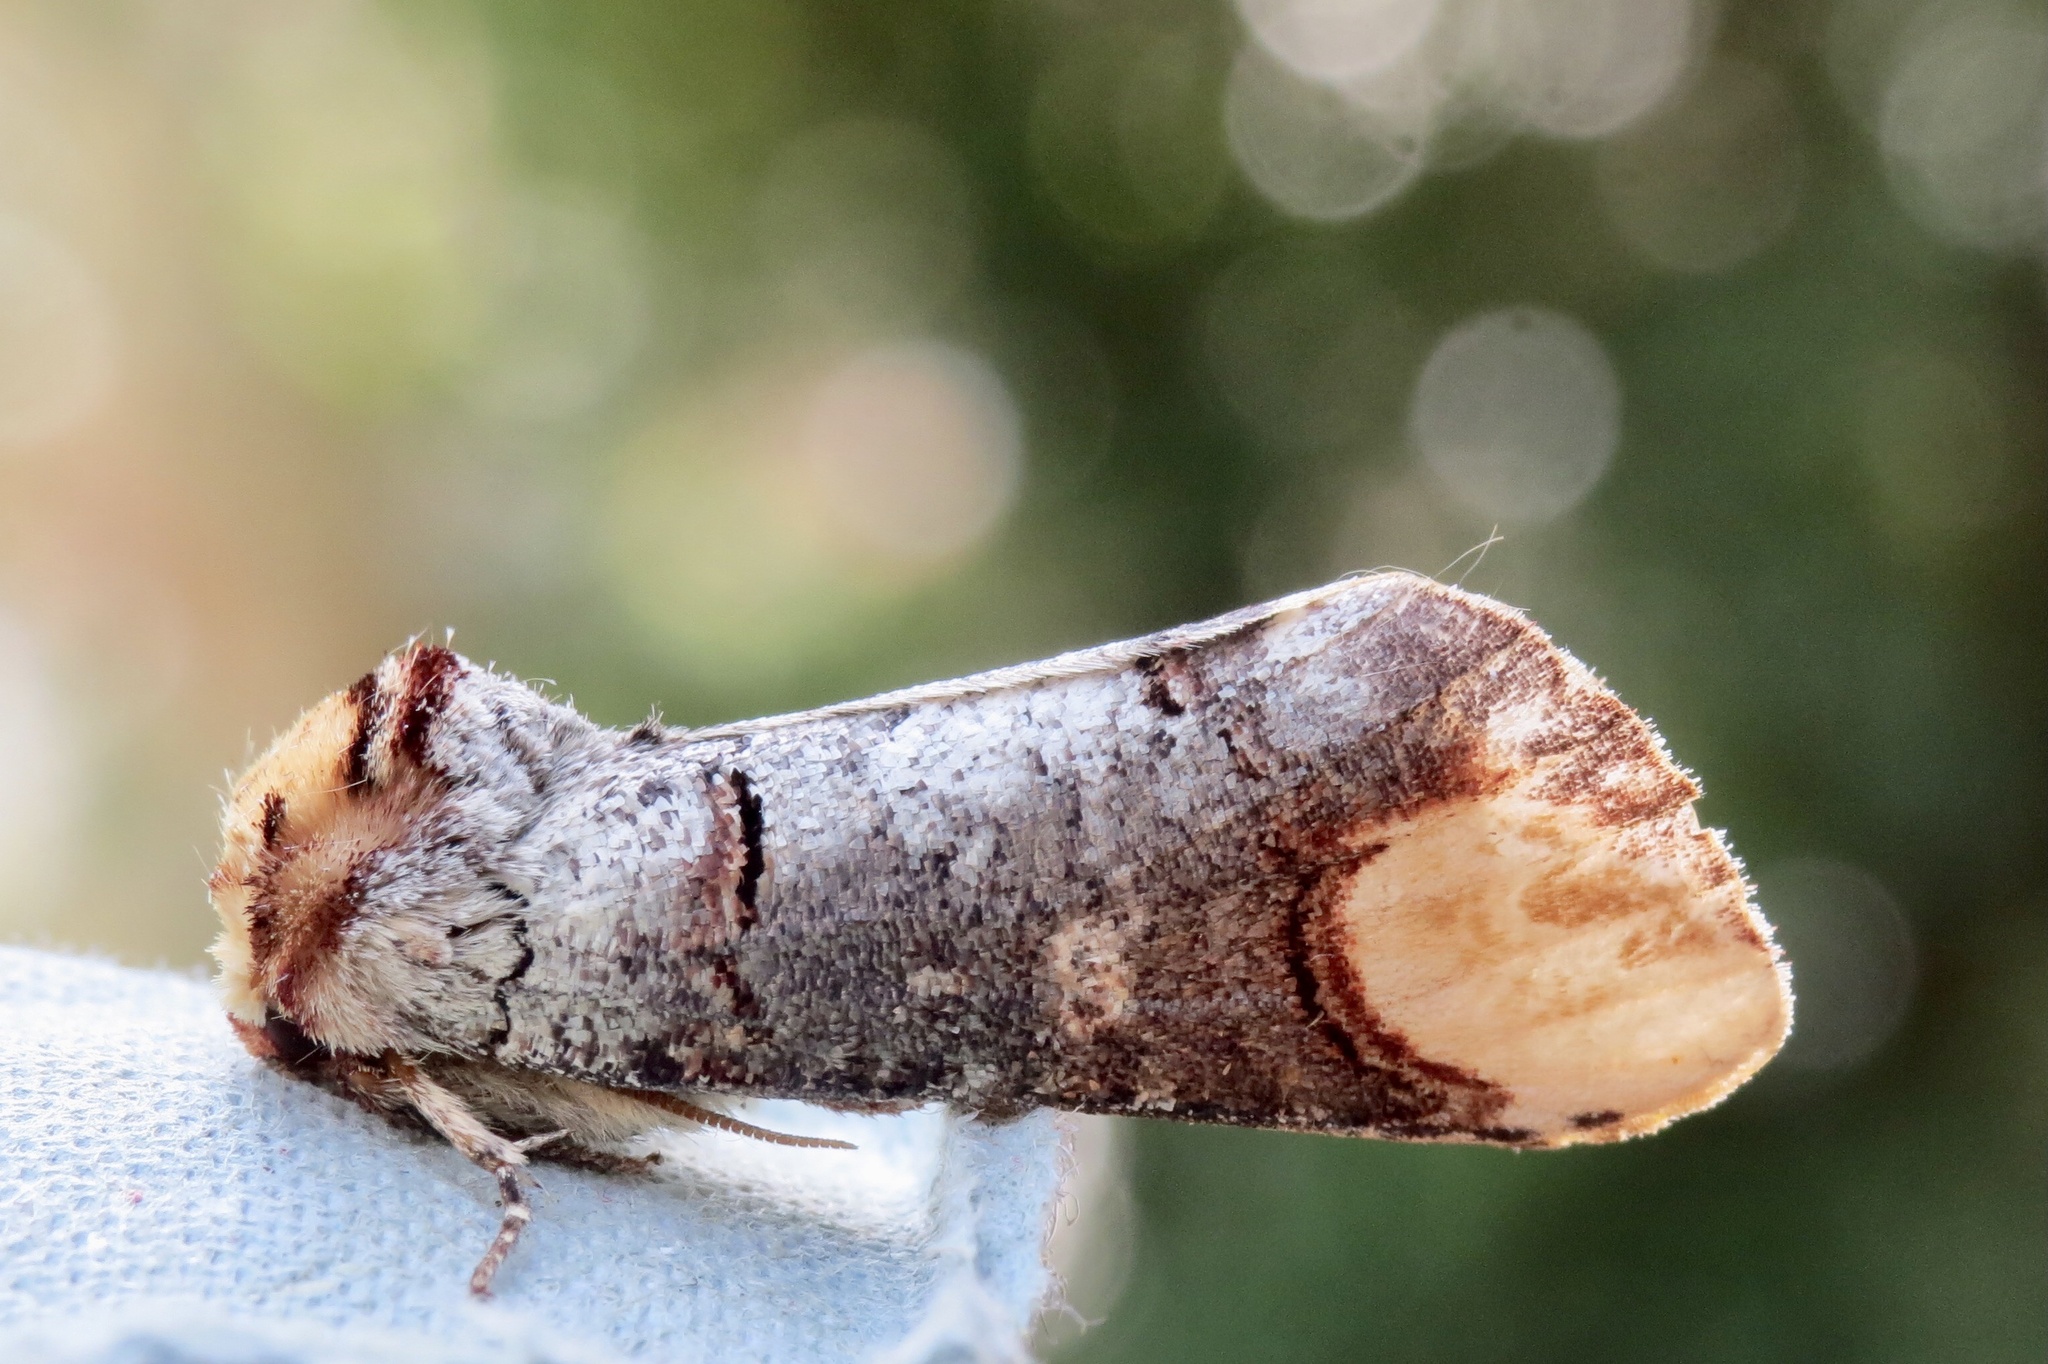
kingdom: Animalia
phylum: Arthropoda
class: Insecta
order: Lepidoptera
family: Notodontidae
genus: Phalera
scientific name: Phalera bucephala
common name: Buff-tip
